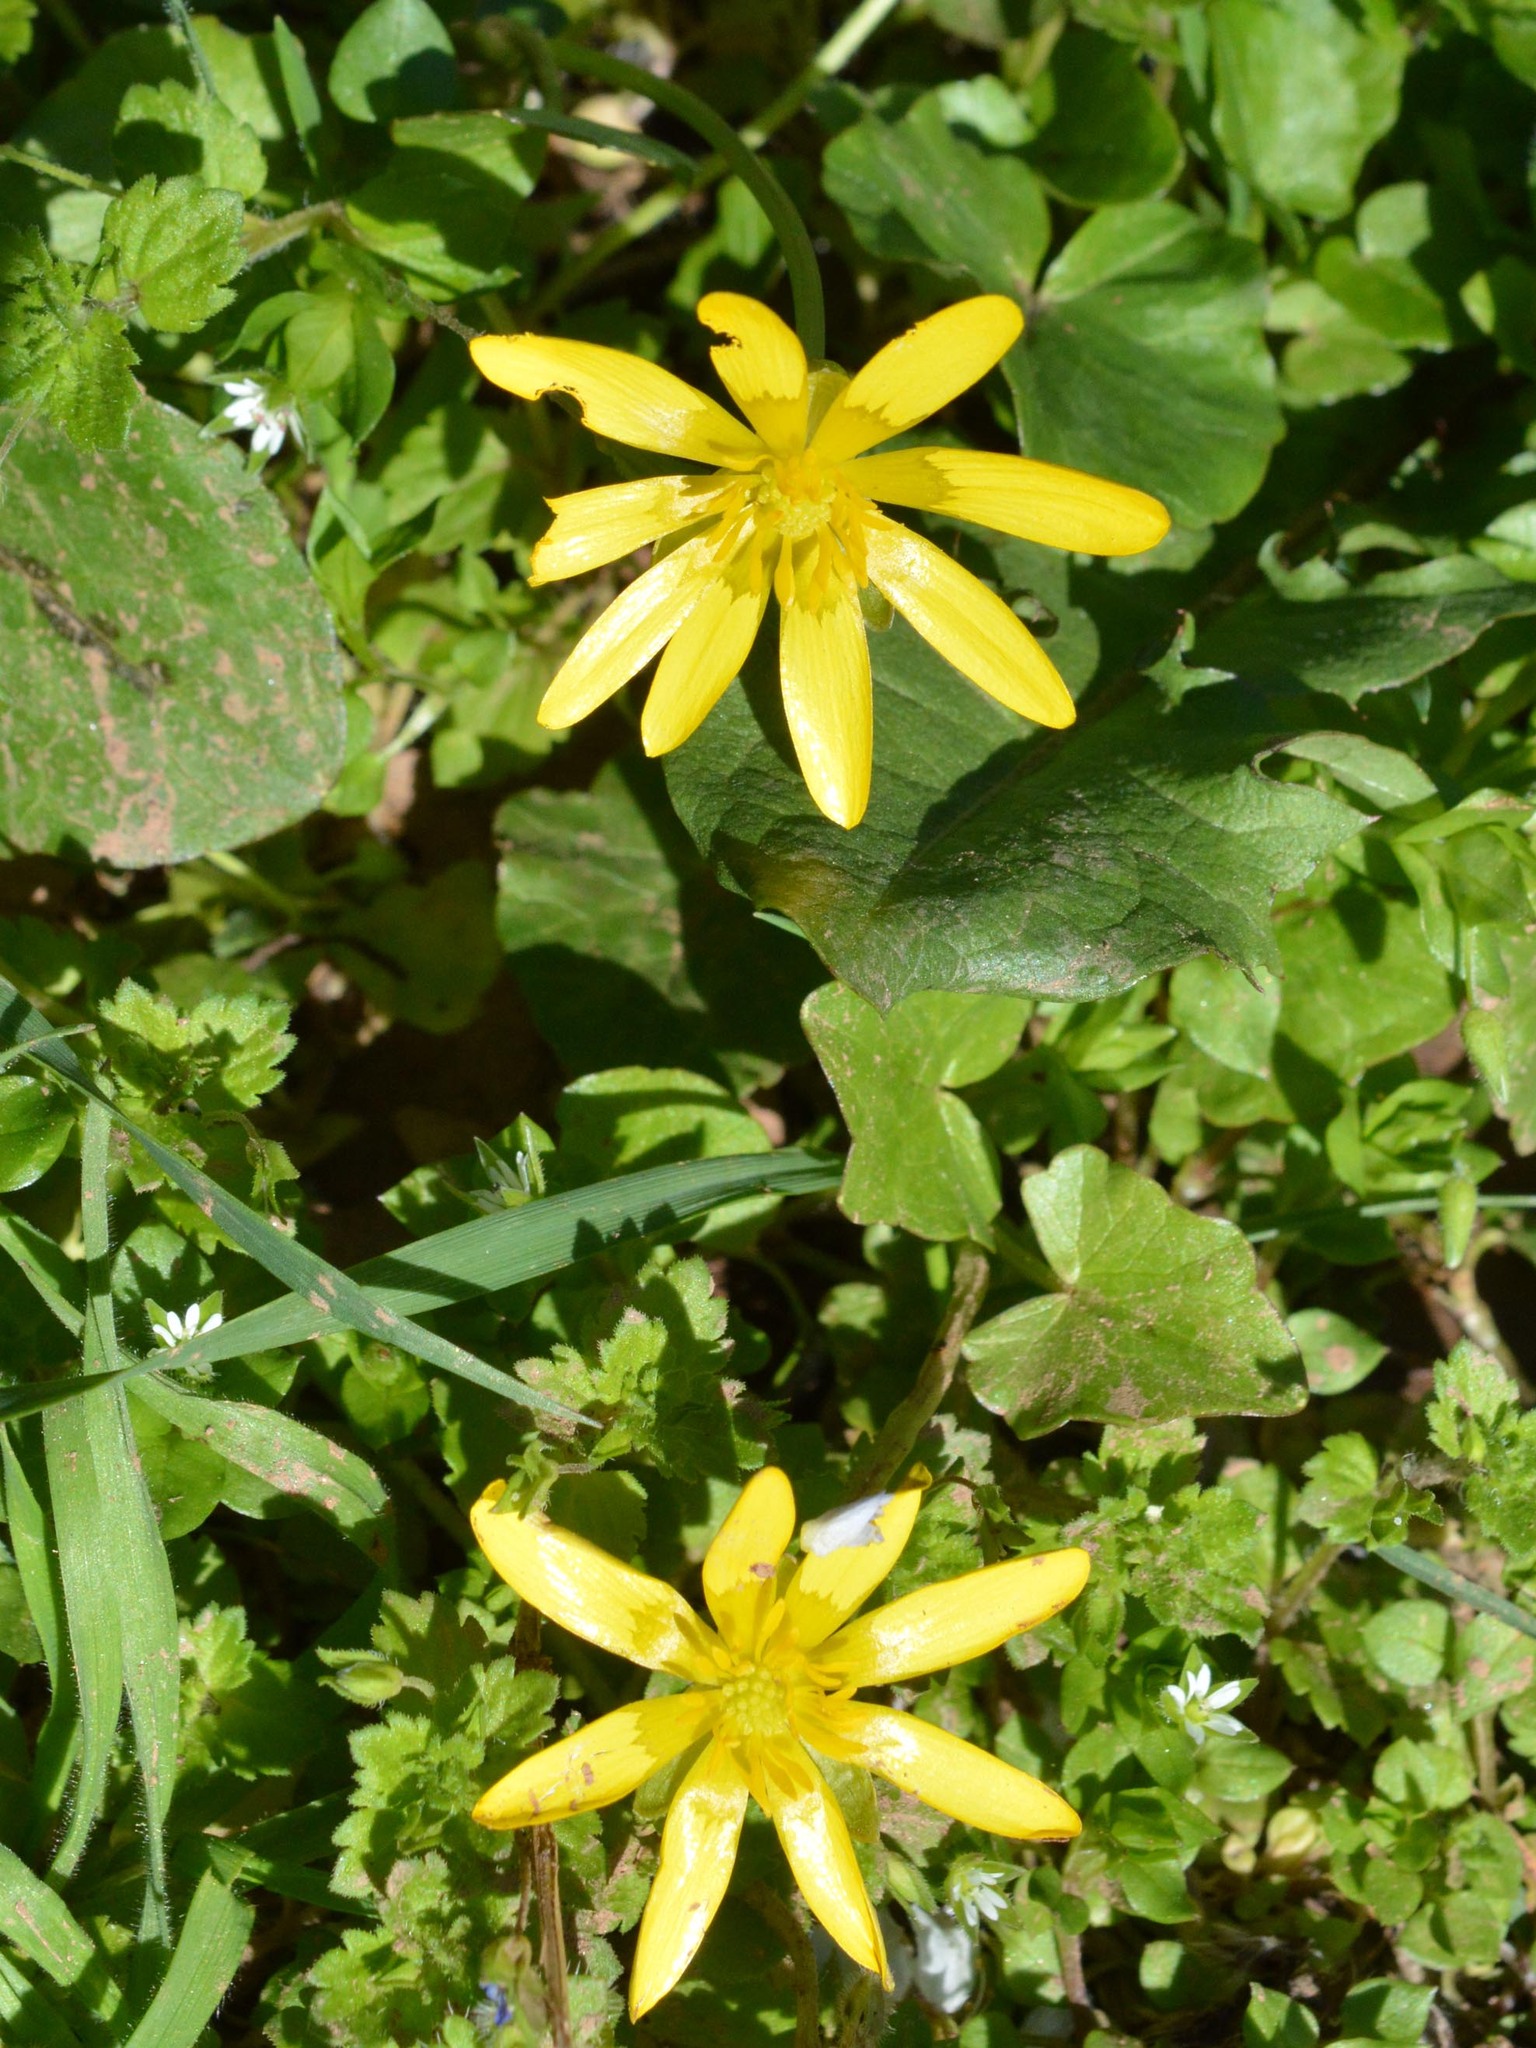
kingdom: Plantae
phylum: Tracheophyta
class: Magnoliopsida
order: Ranunculales
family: Ranunculaceae
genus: Ficaria
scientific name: Ficaria verna
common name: Lesser celandine
